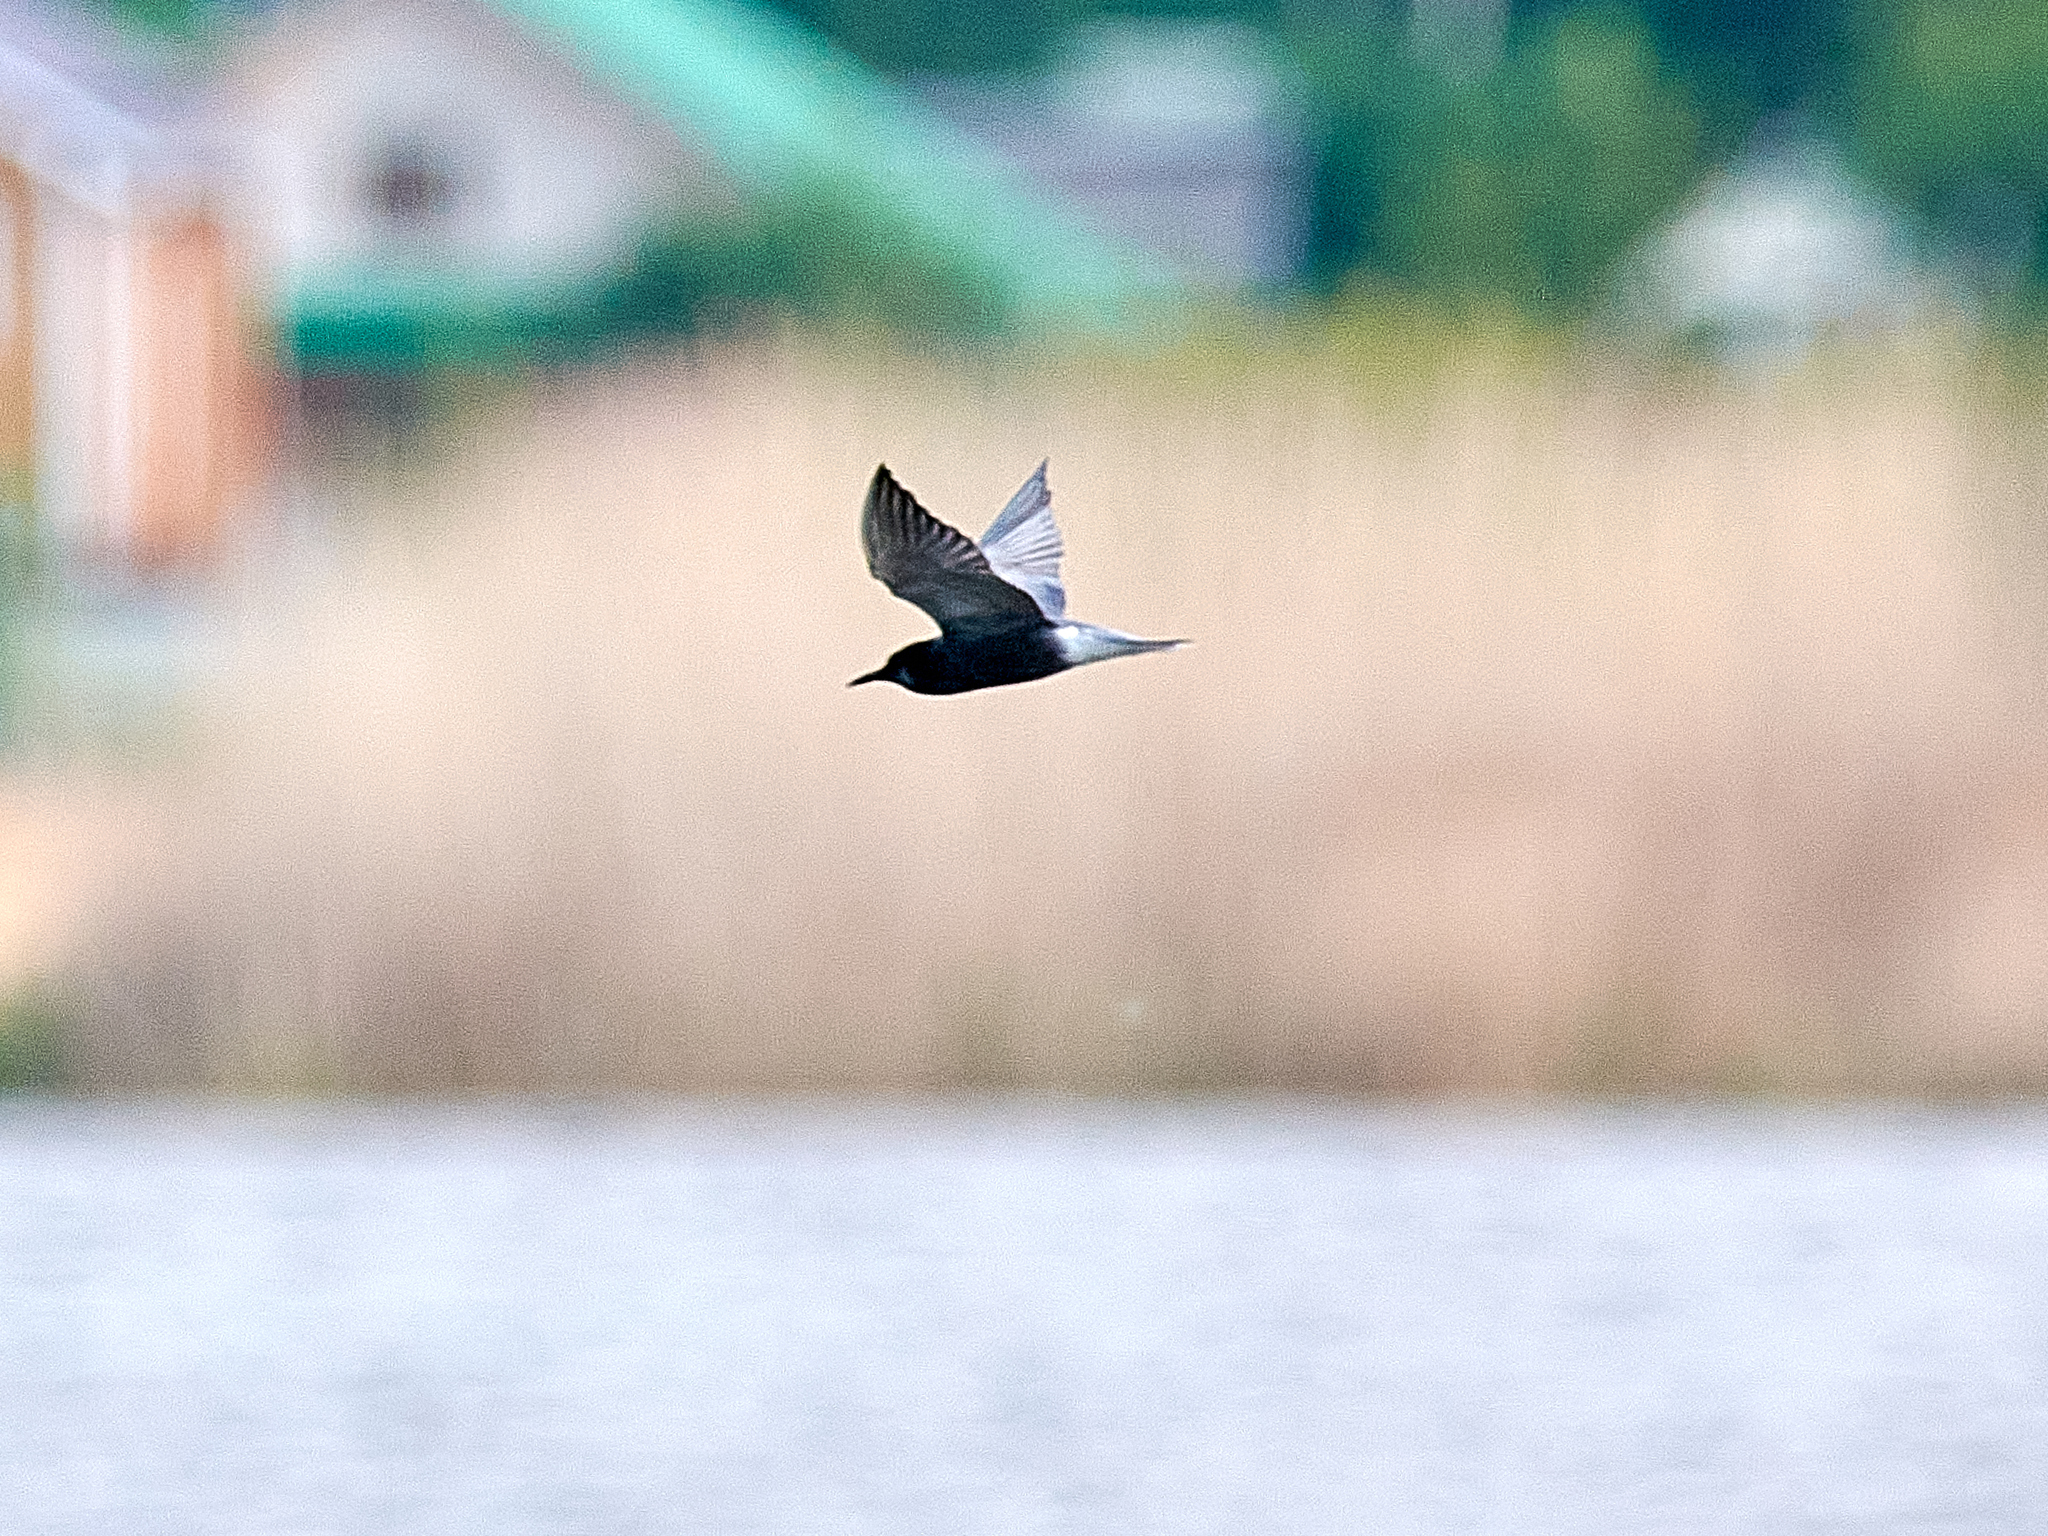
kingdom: Animalia
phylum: Chordata
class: Aves
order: Charadriiformes
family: Laridae
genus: Chlidonias
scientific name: Chlidonias niger
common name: Black tern
